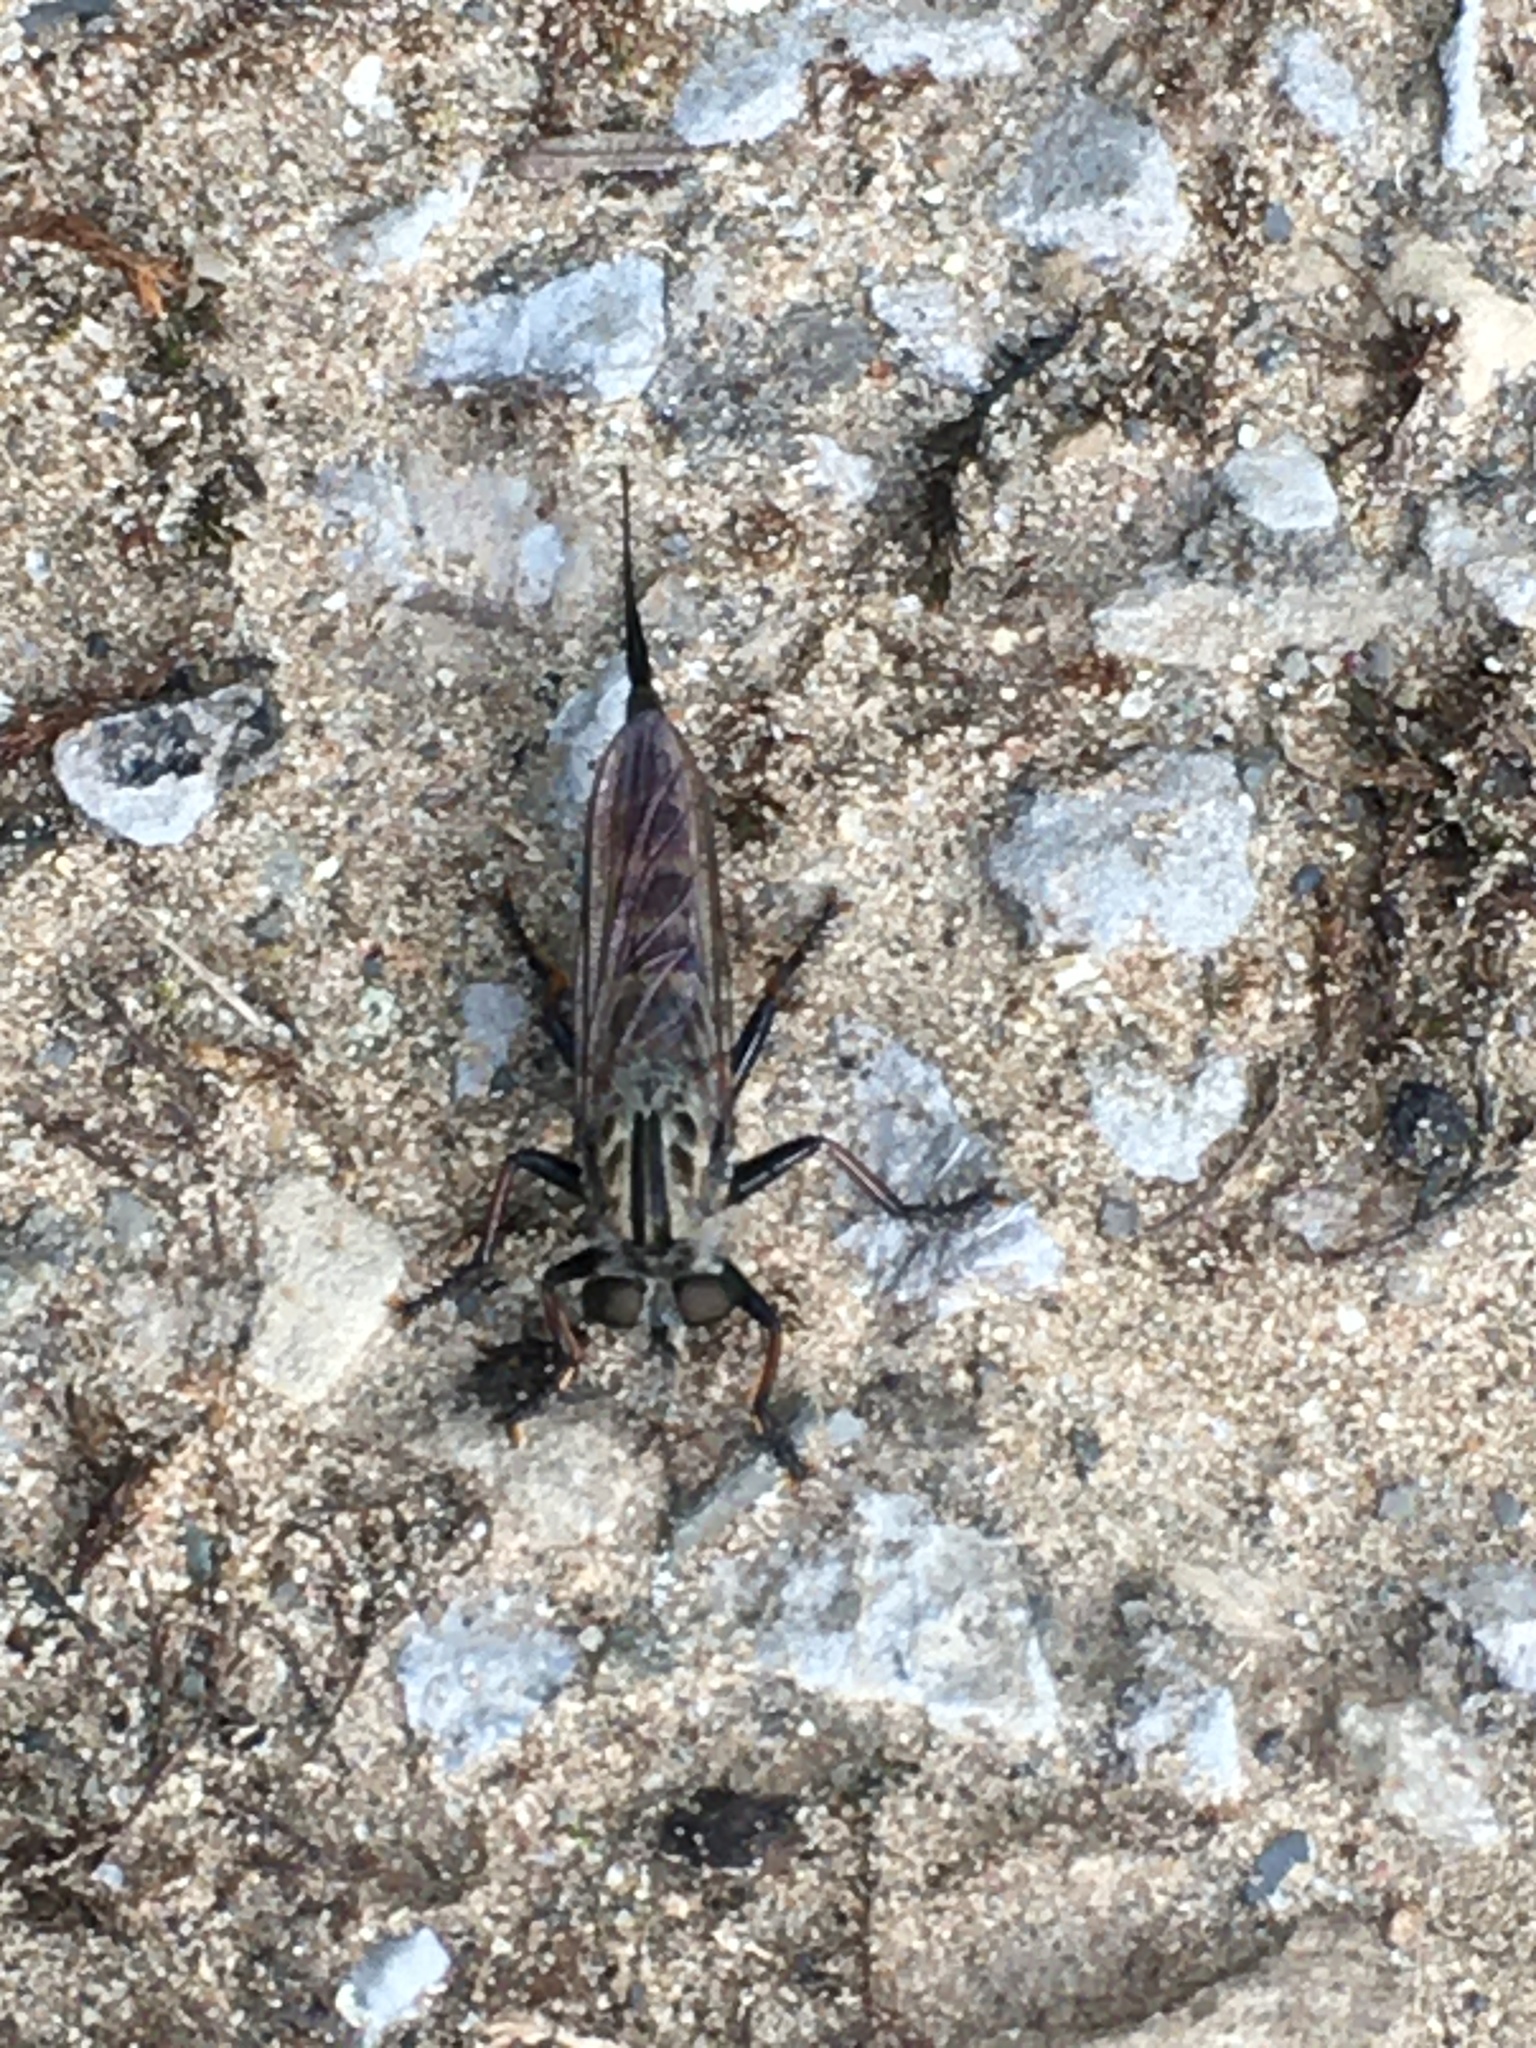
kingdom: Animalia
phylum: Arthropoda
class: Insecta
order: Diptera
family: Asilidae
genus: Efferia
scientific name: Efferia aestuans
